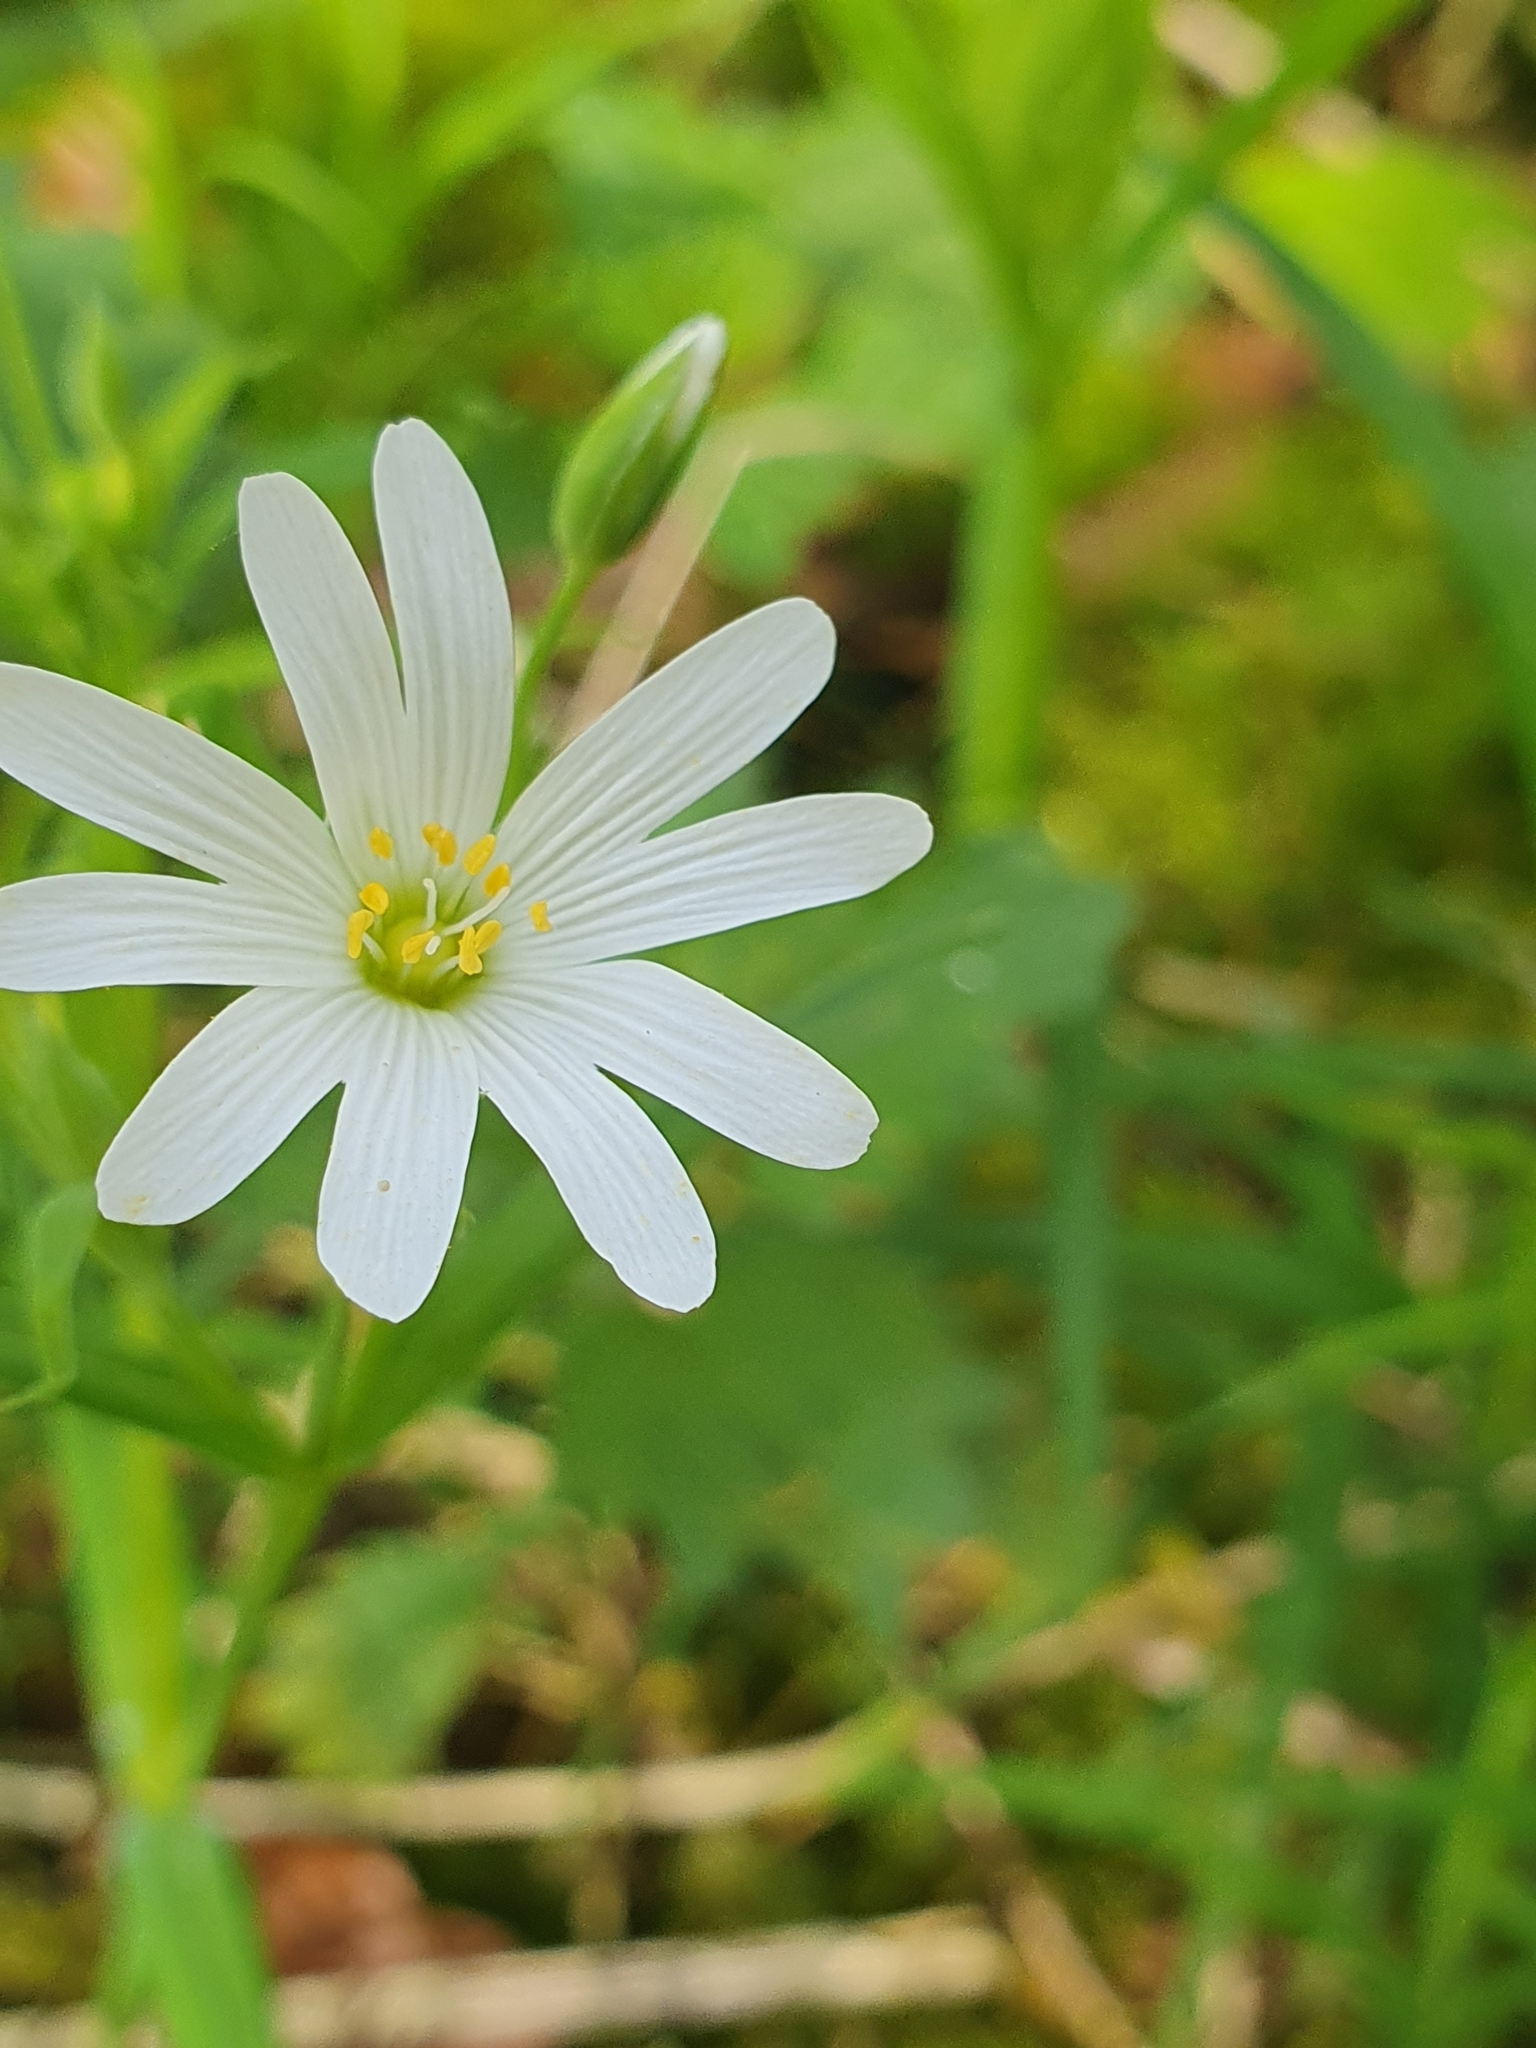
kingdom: Plantae
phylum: Tracheophyta
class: Magnoliopsida
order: Caryophyllales
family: Caryophyllaceae
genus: Rabelera
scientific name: Rabelera holostea
